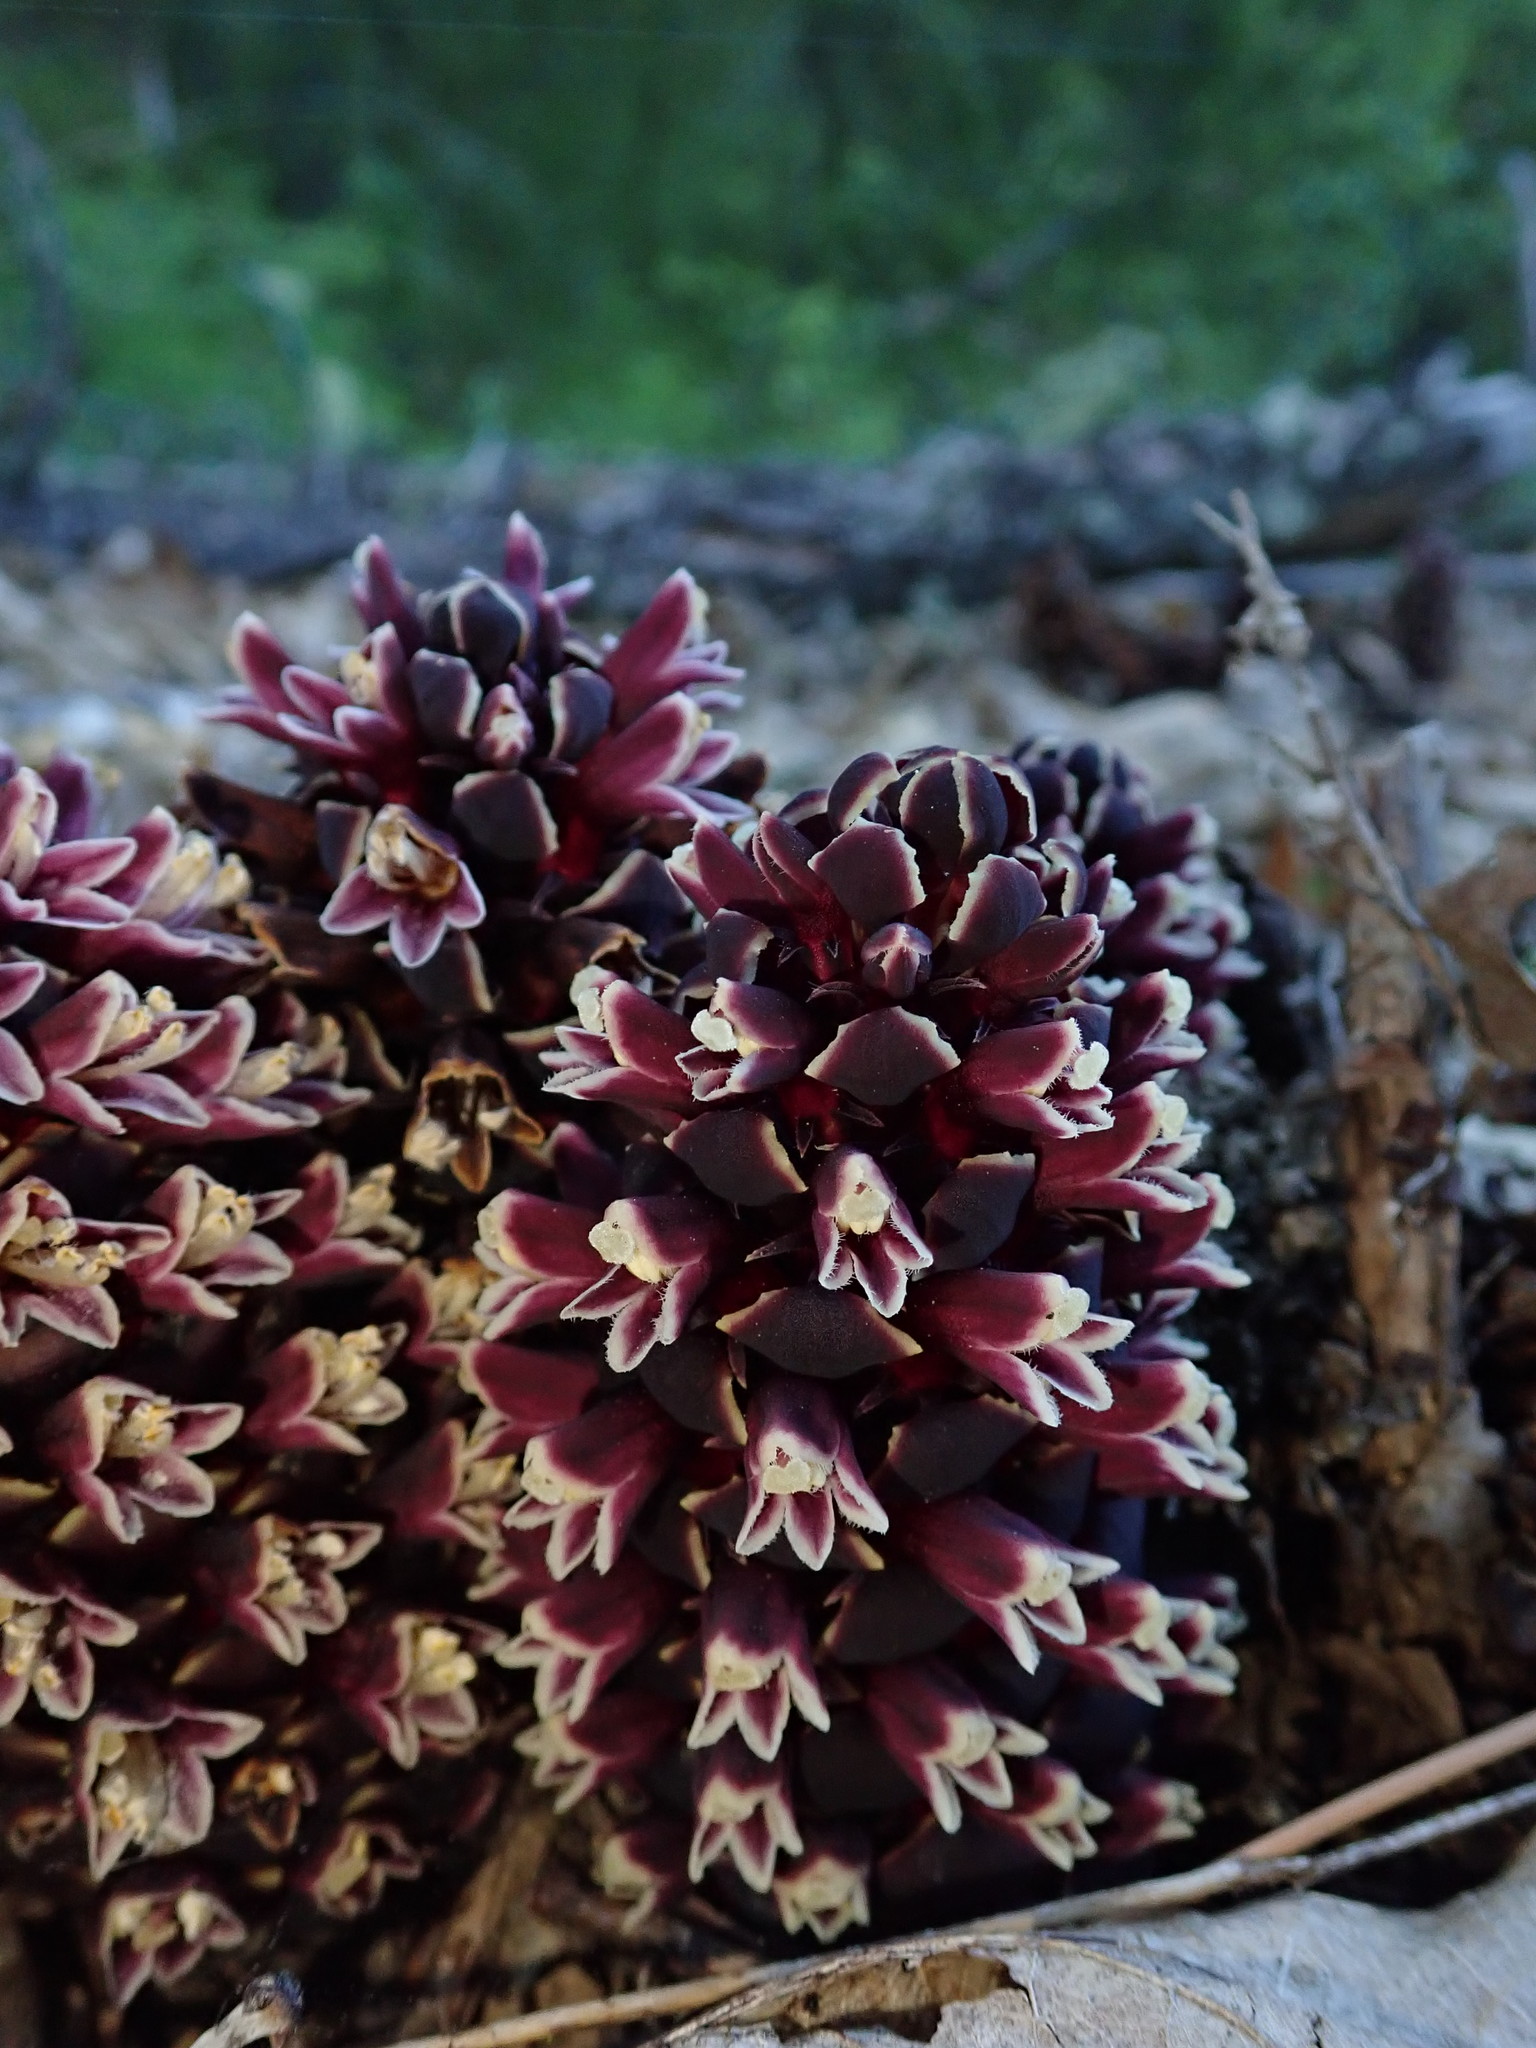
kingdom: Plantae
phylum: Tracheophyta
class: Magnoliopsida
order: Lamiales
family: Orobanchaceae
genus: Kopsiopsis
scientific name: Kopsiopsis strobilacea
